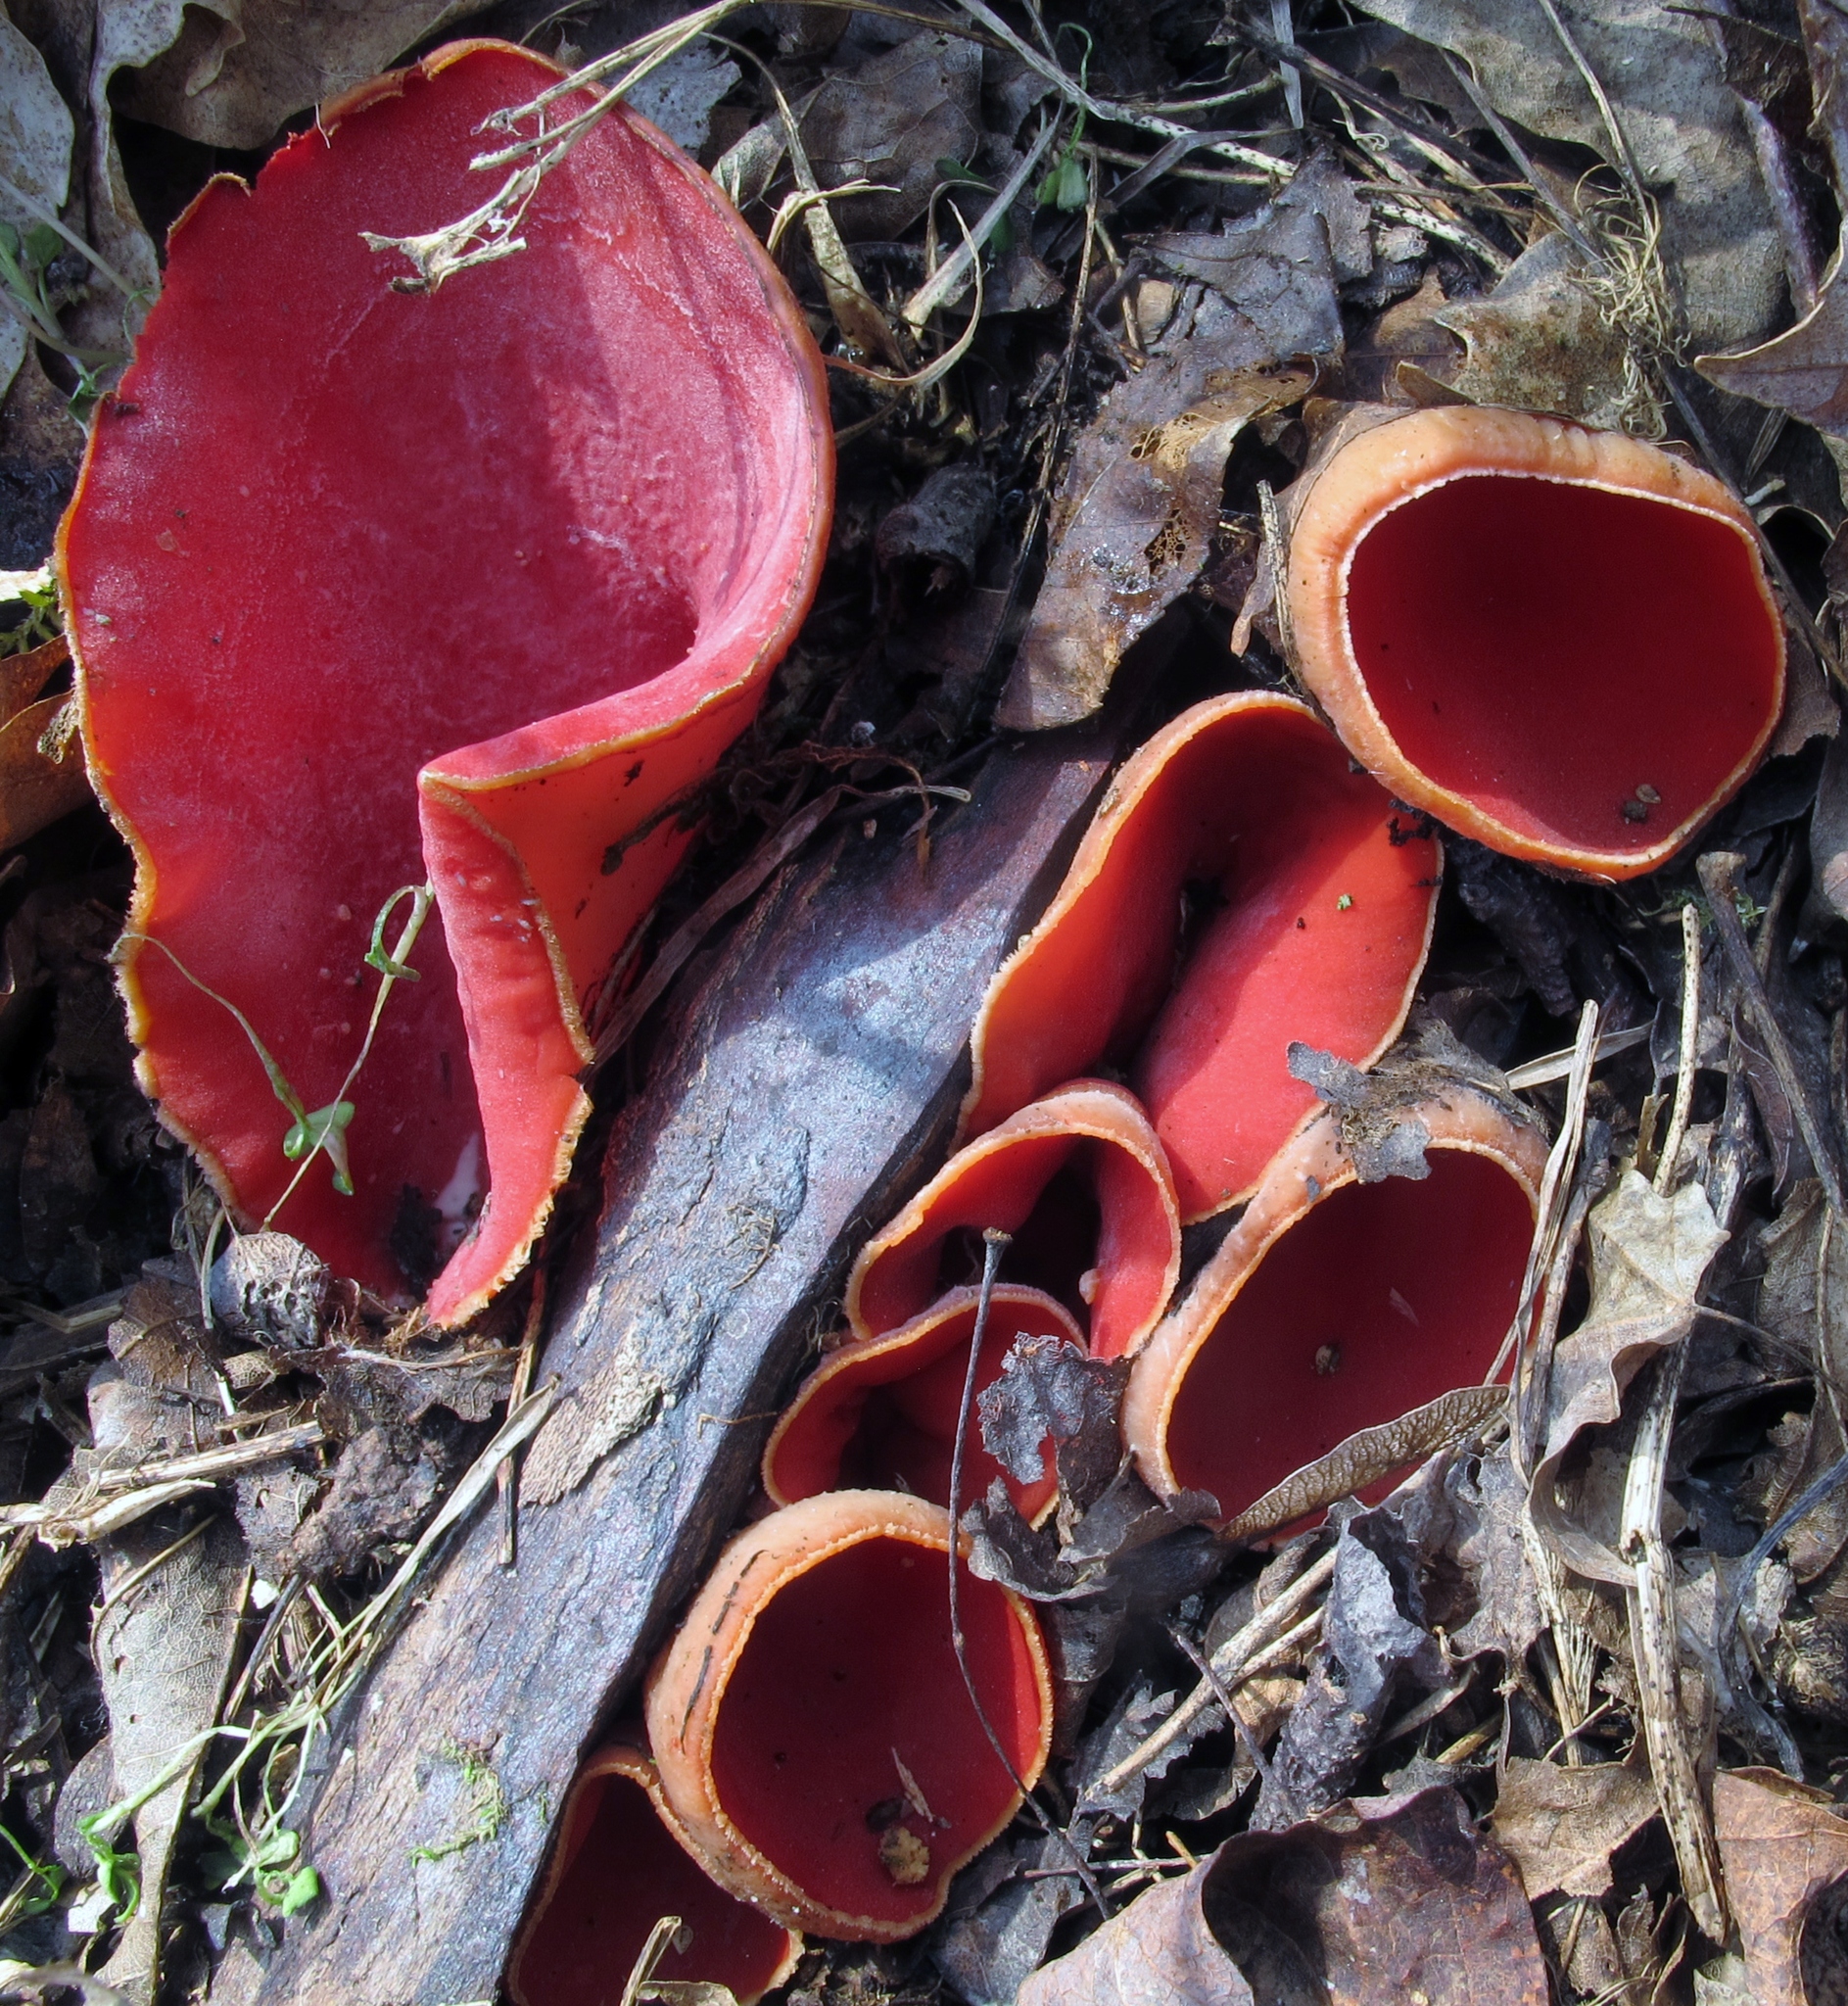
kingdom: Fungi
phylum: Ascomycota
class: Pezizomycetes
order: Pezizales
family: Sarcoscyphaceae
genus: Sarcoscypha
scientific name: Sarcoscypha austriaca
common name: Scarlet elfcup
